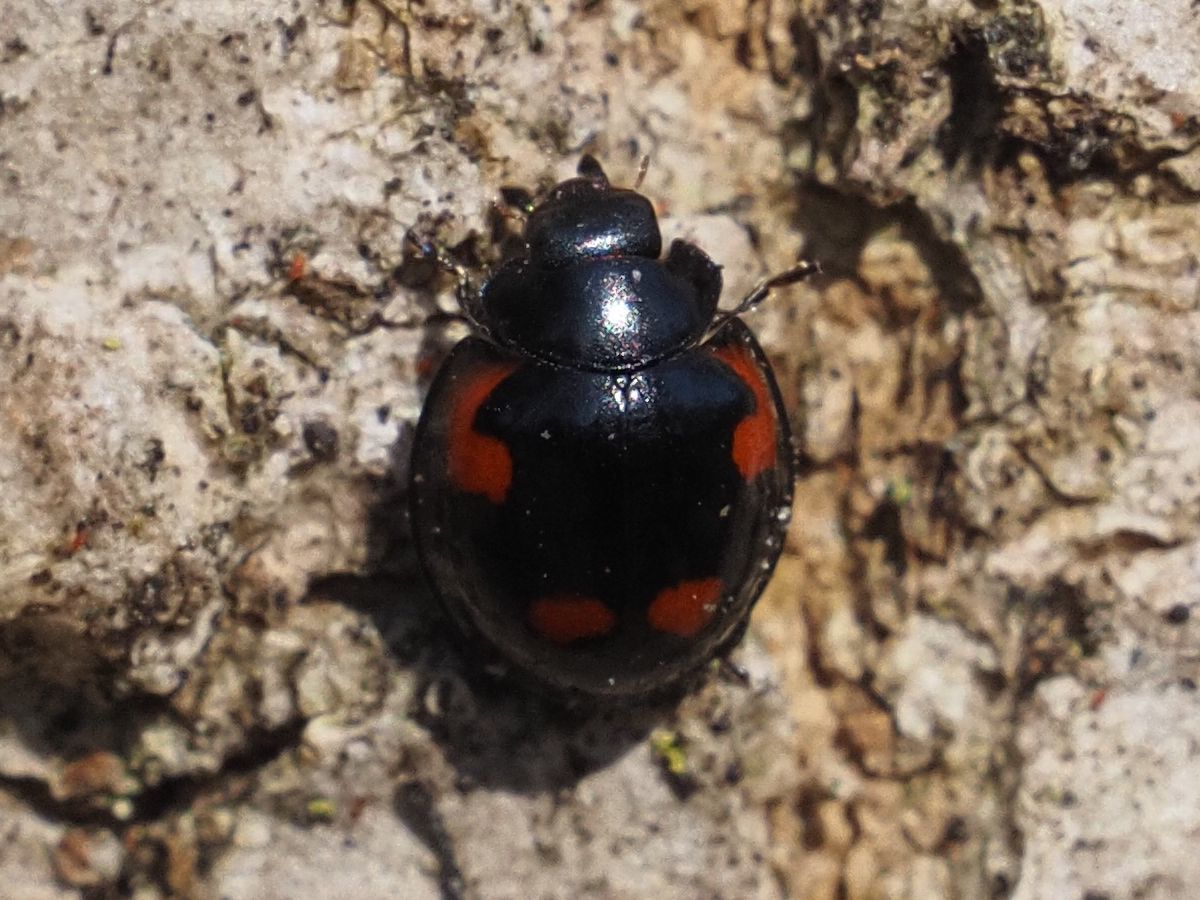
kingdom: Animalia
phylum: Arthropoda
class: Insecta
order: Coleoptera
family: Coccinellidae
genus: Brumus
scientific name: Brumus quadripustulatus
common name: Ladybird beetle
